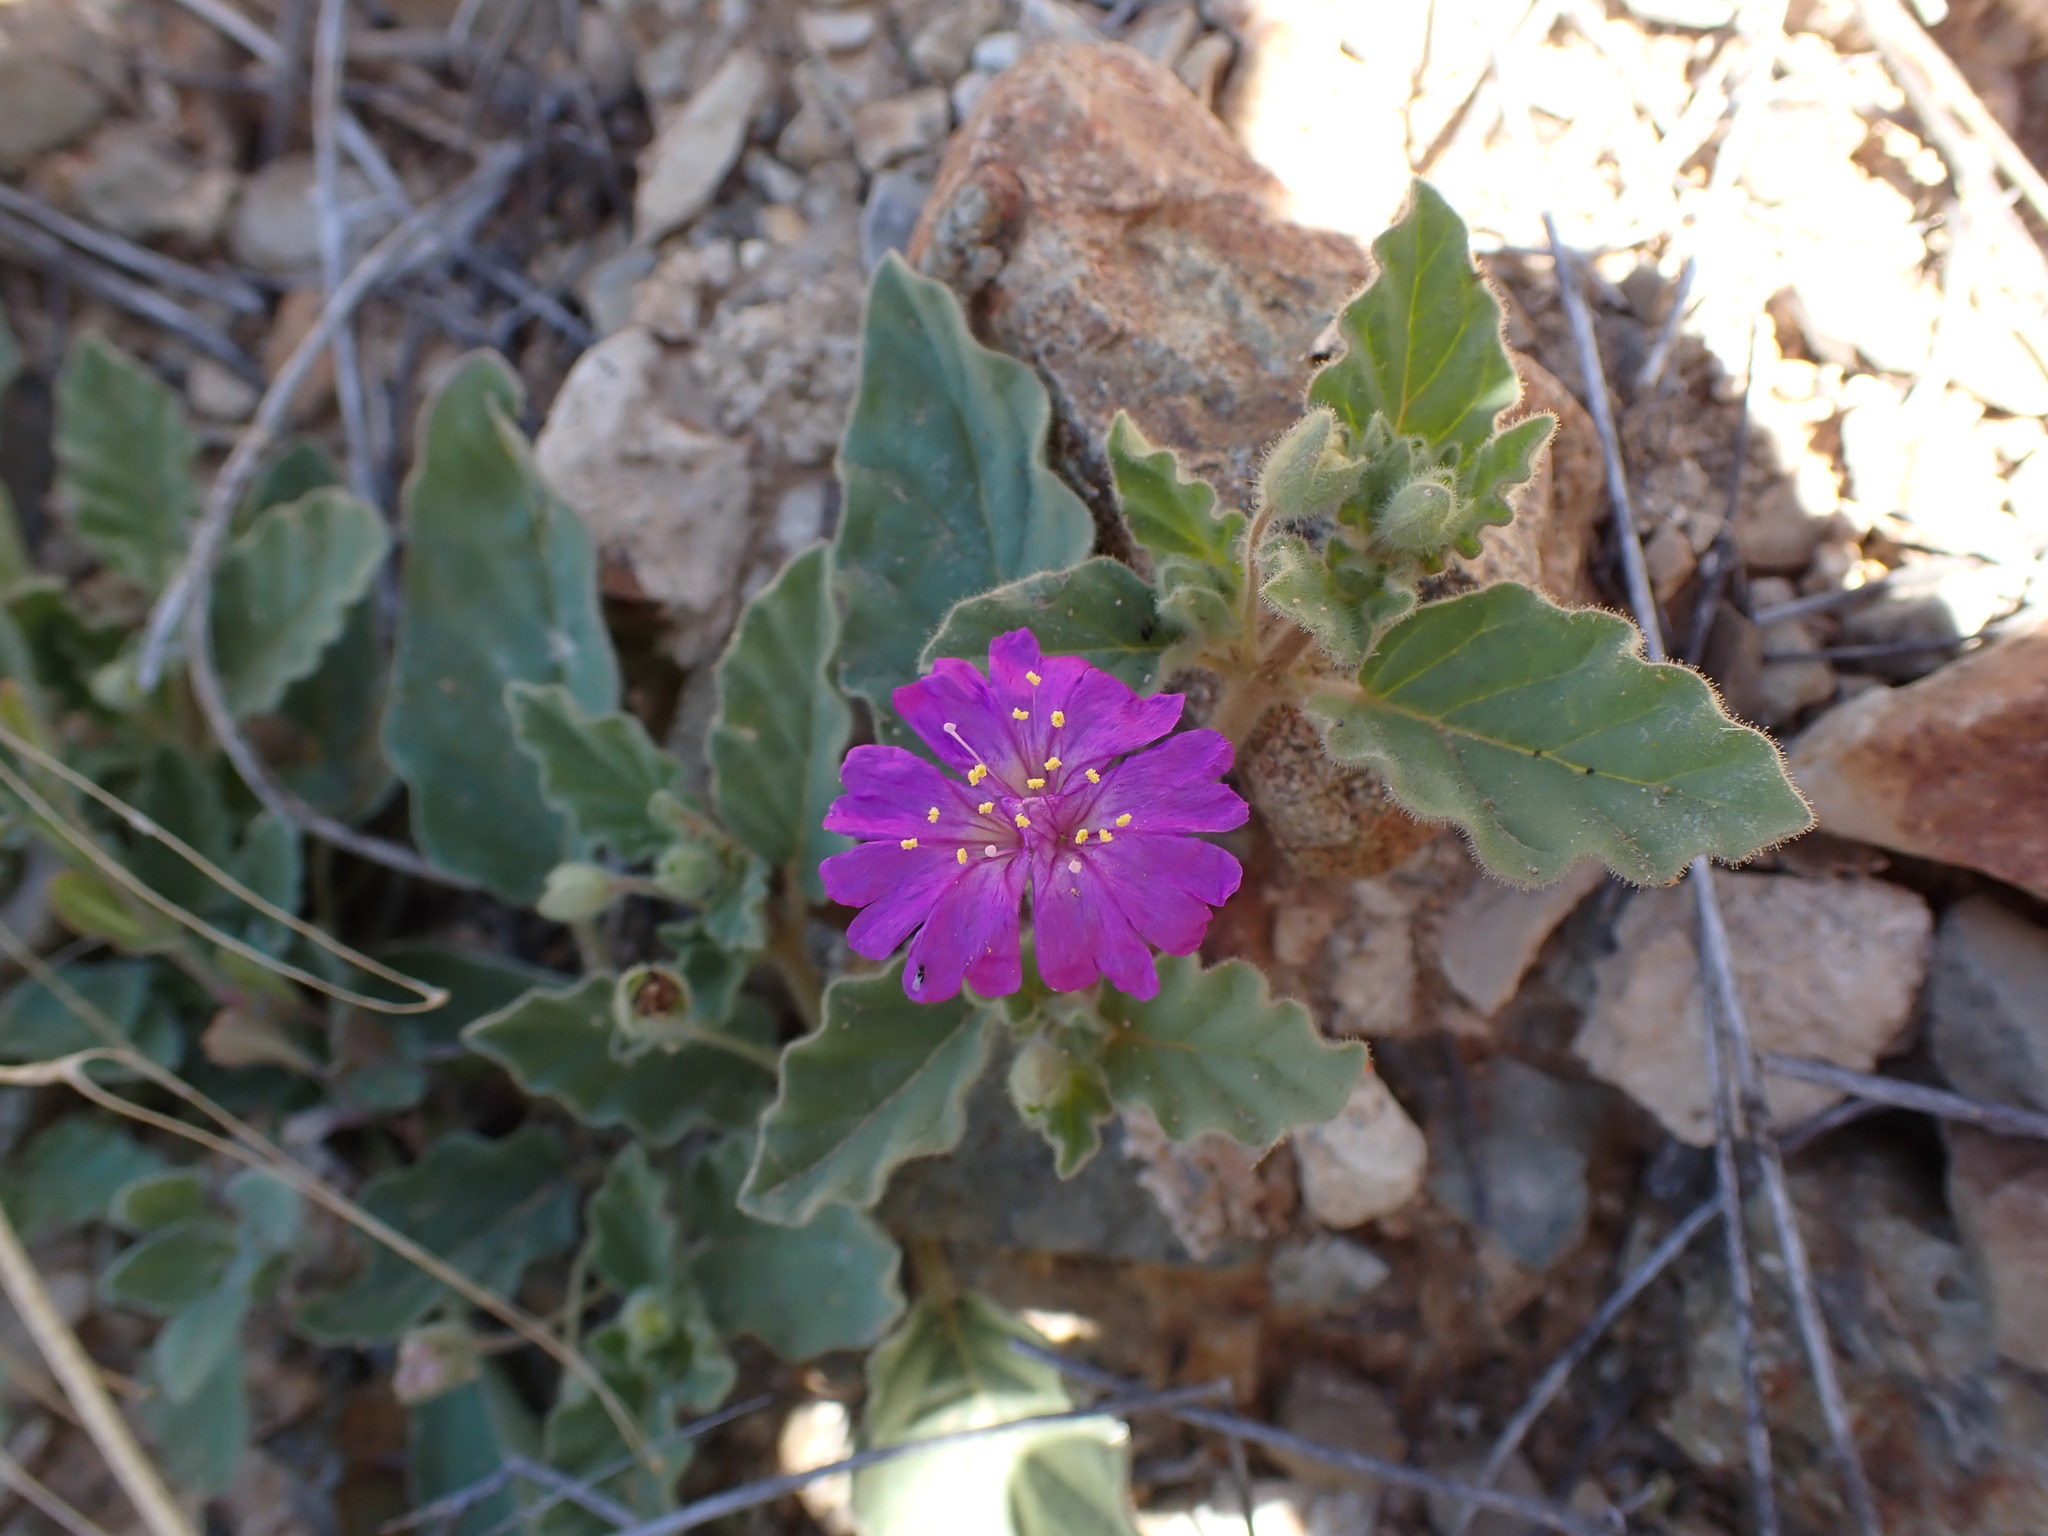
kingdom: Plantae
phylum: Tracheophyta
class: Magnoliopsida
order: Caryophyllales
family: Nyctaginaceae
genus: Allionia
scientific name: Allionia incarnata
